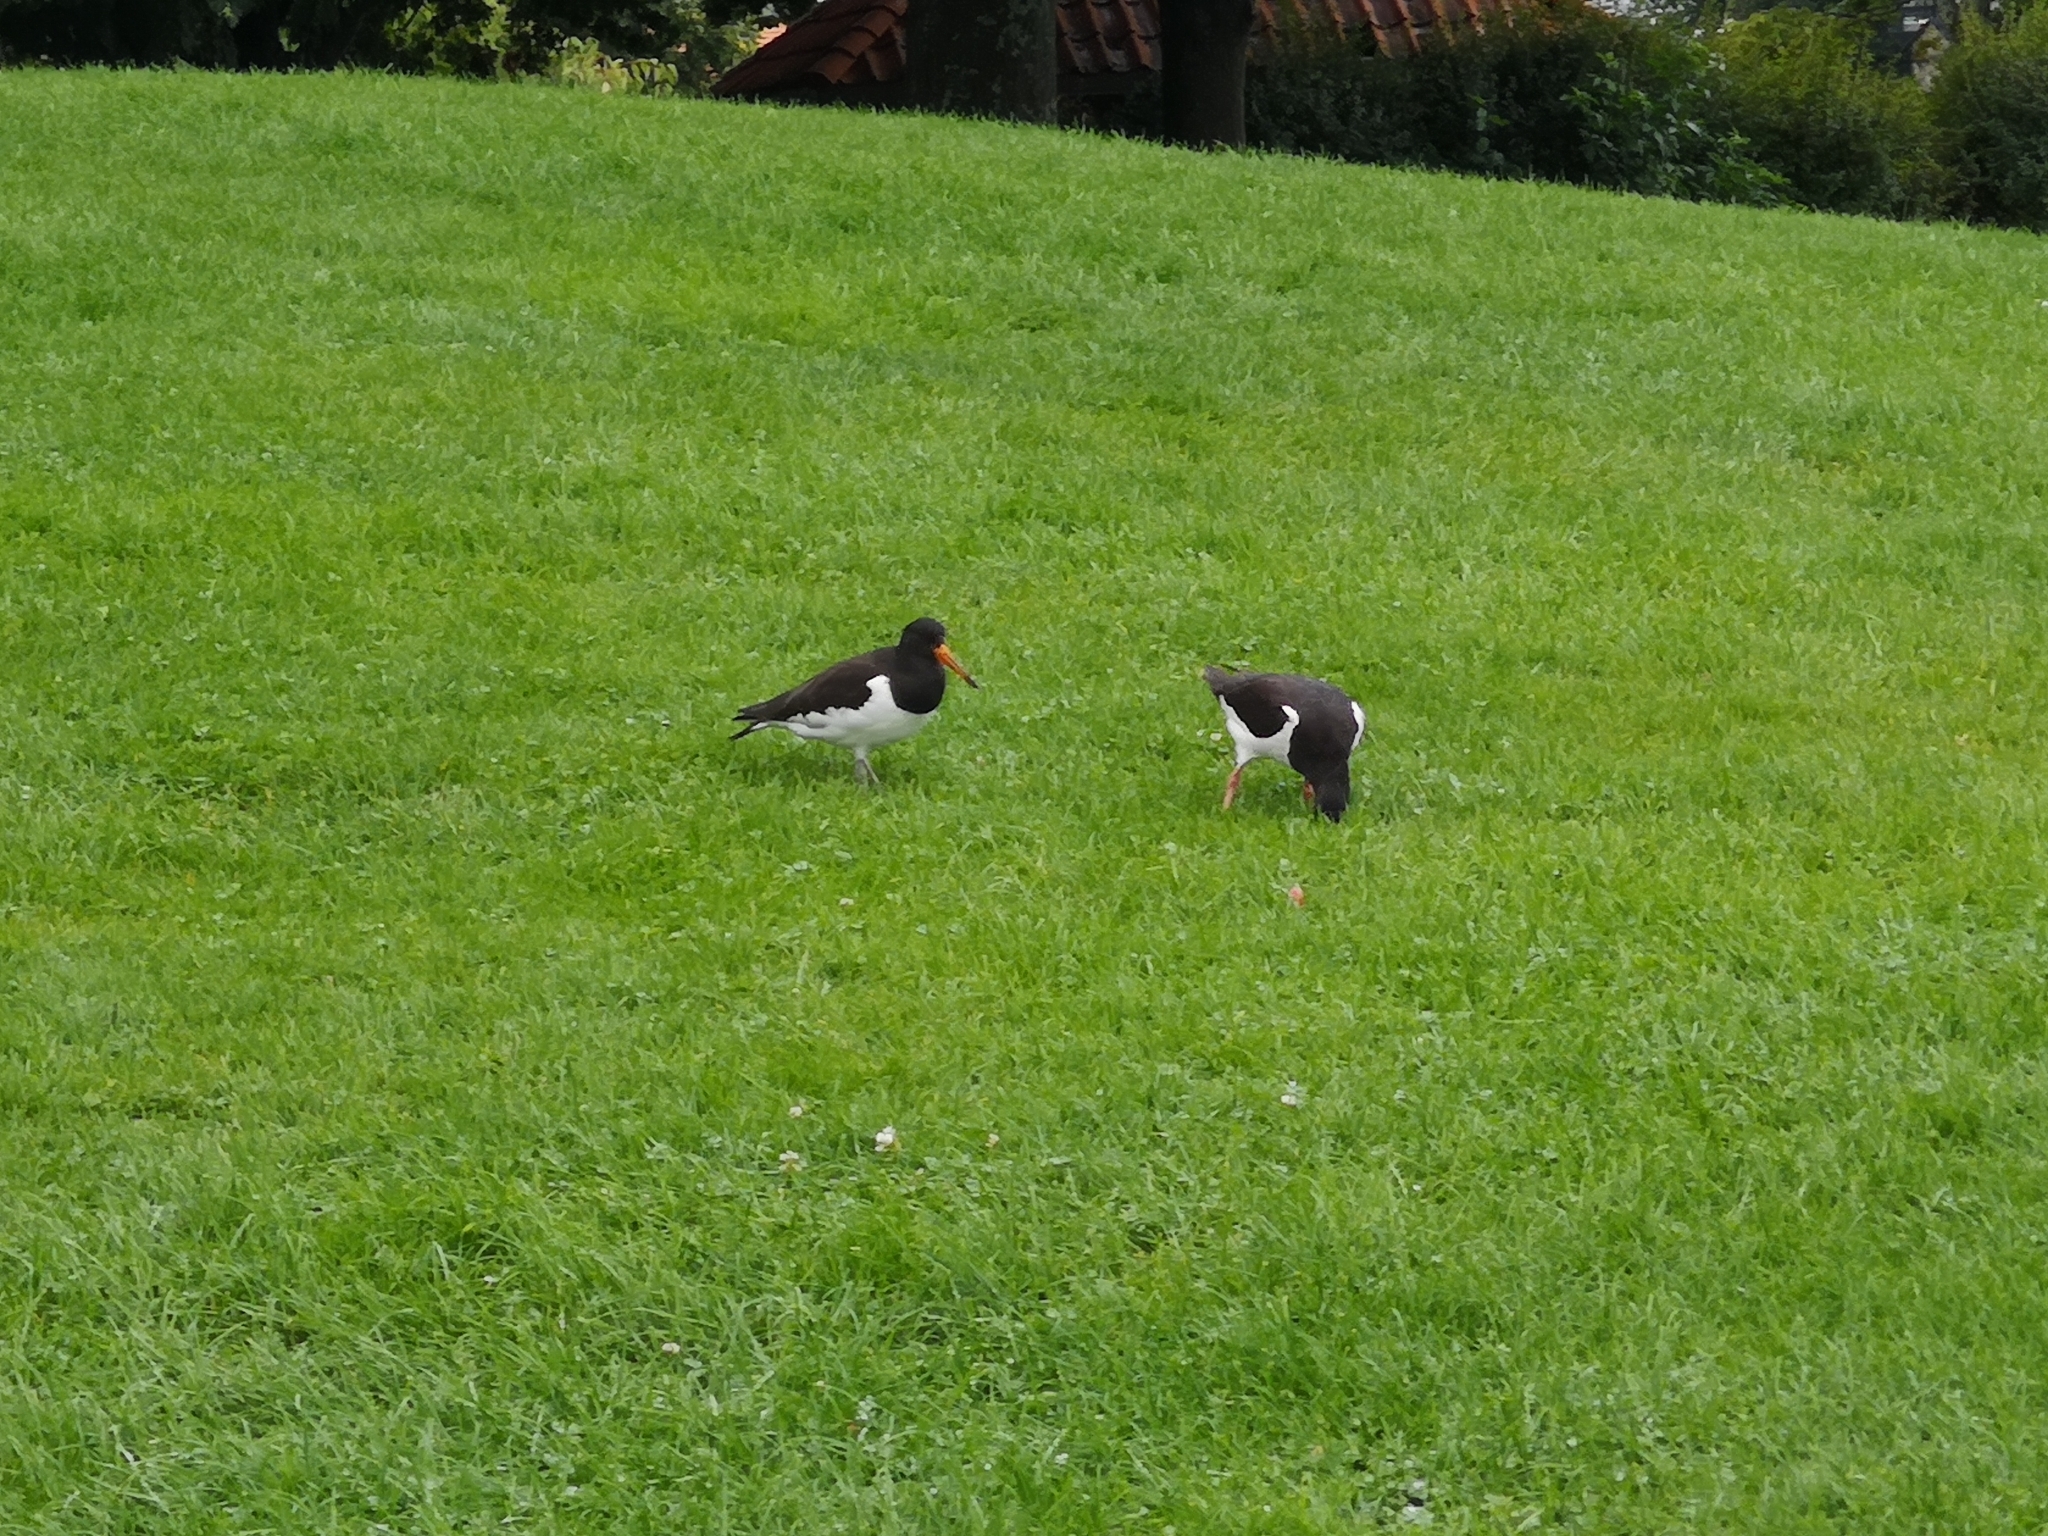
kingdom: Animalia
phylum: Chordata
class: Aves
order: Charadriiformes
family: Haematopodidae
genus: Haematopus
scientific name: Haematopus ostralegus
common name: Eurasian oystercatcher
